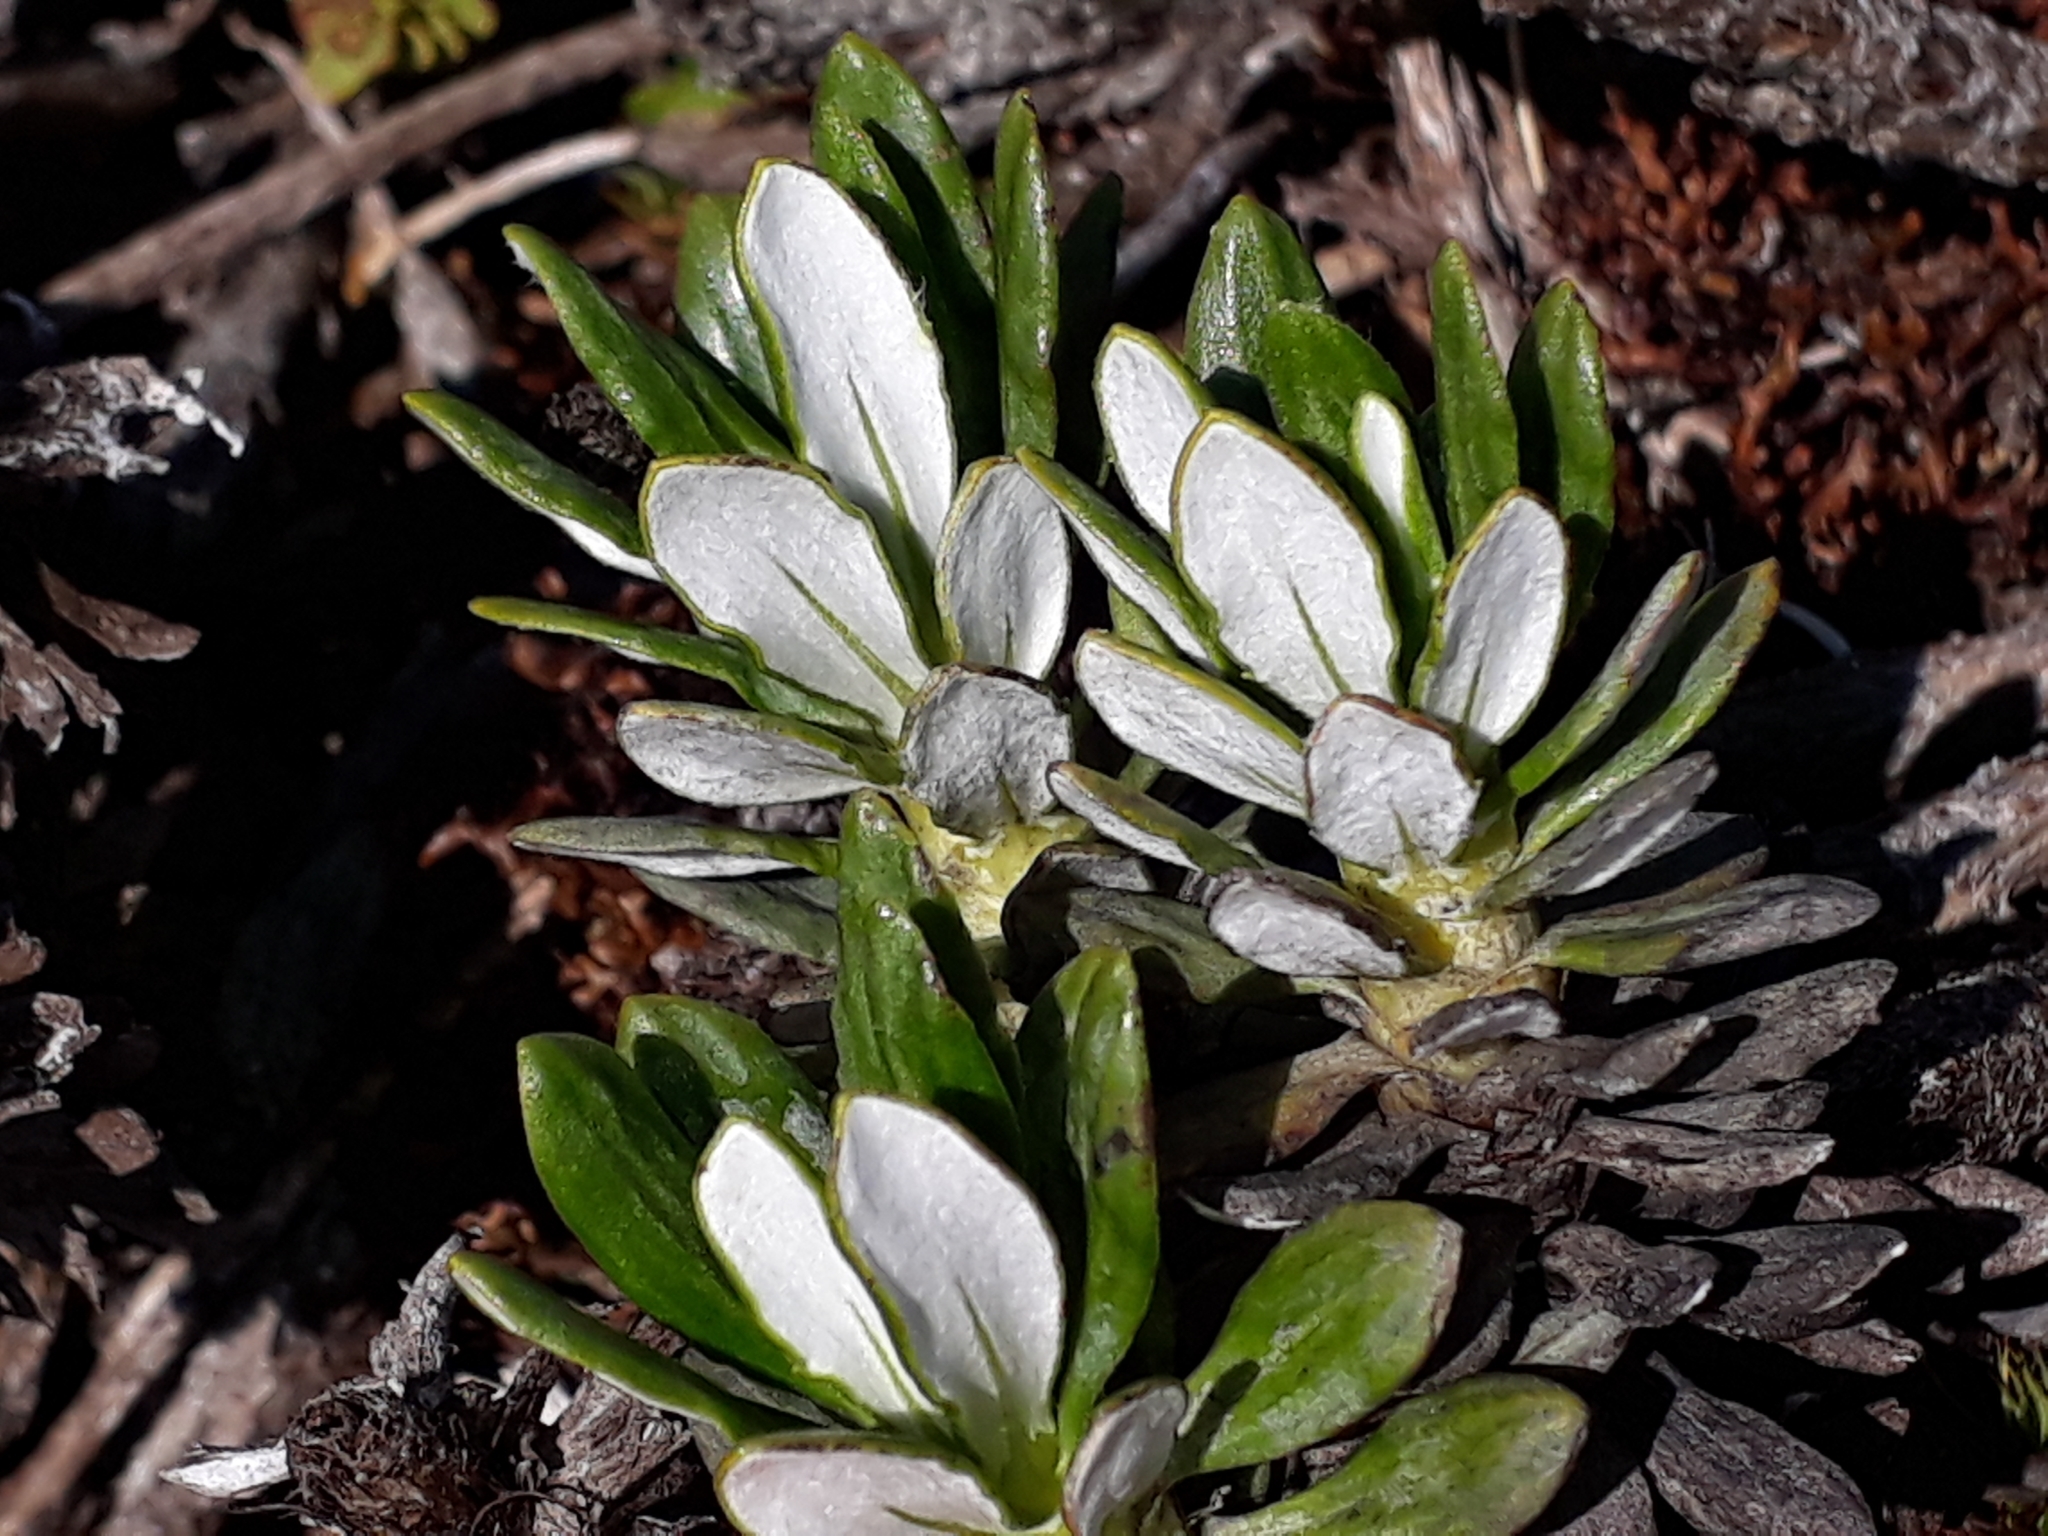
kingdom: Plantae
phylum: Tracheophyta
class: Magnoliopsida
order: Asterales
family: Asteraceae
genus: Celmisia
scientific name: Celmisia brevifolia
